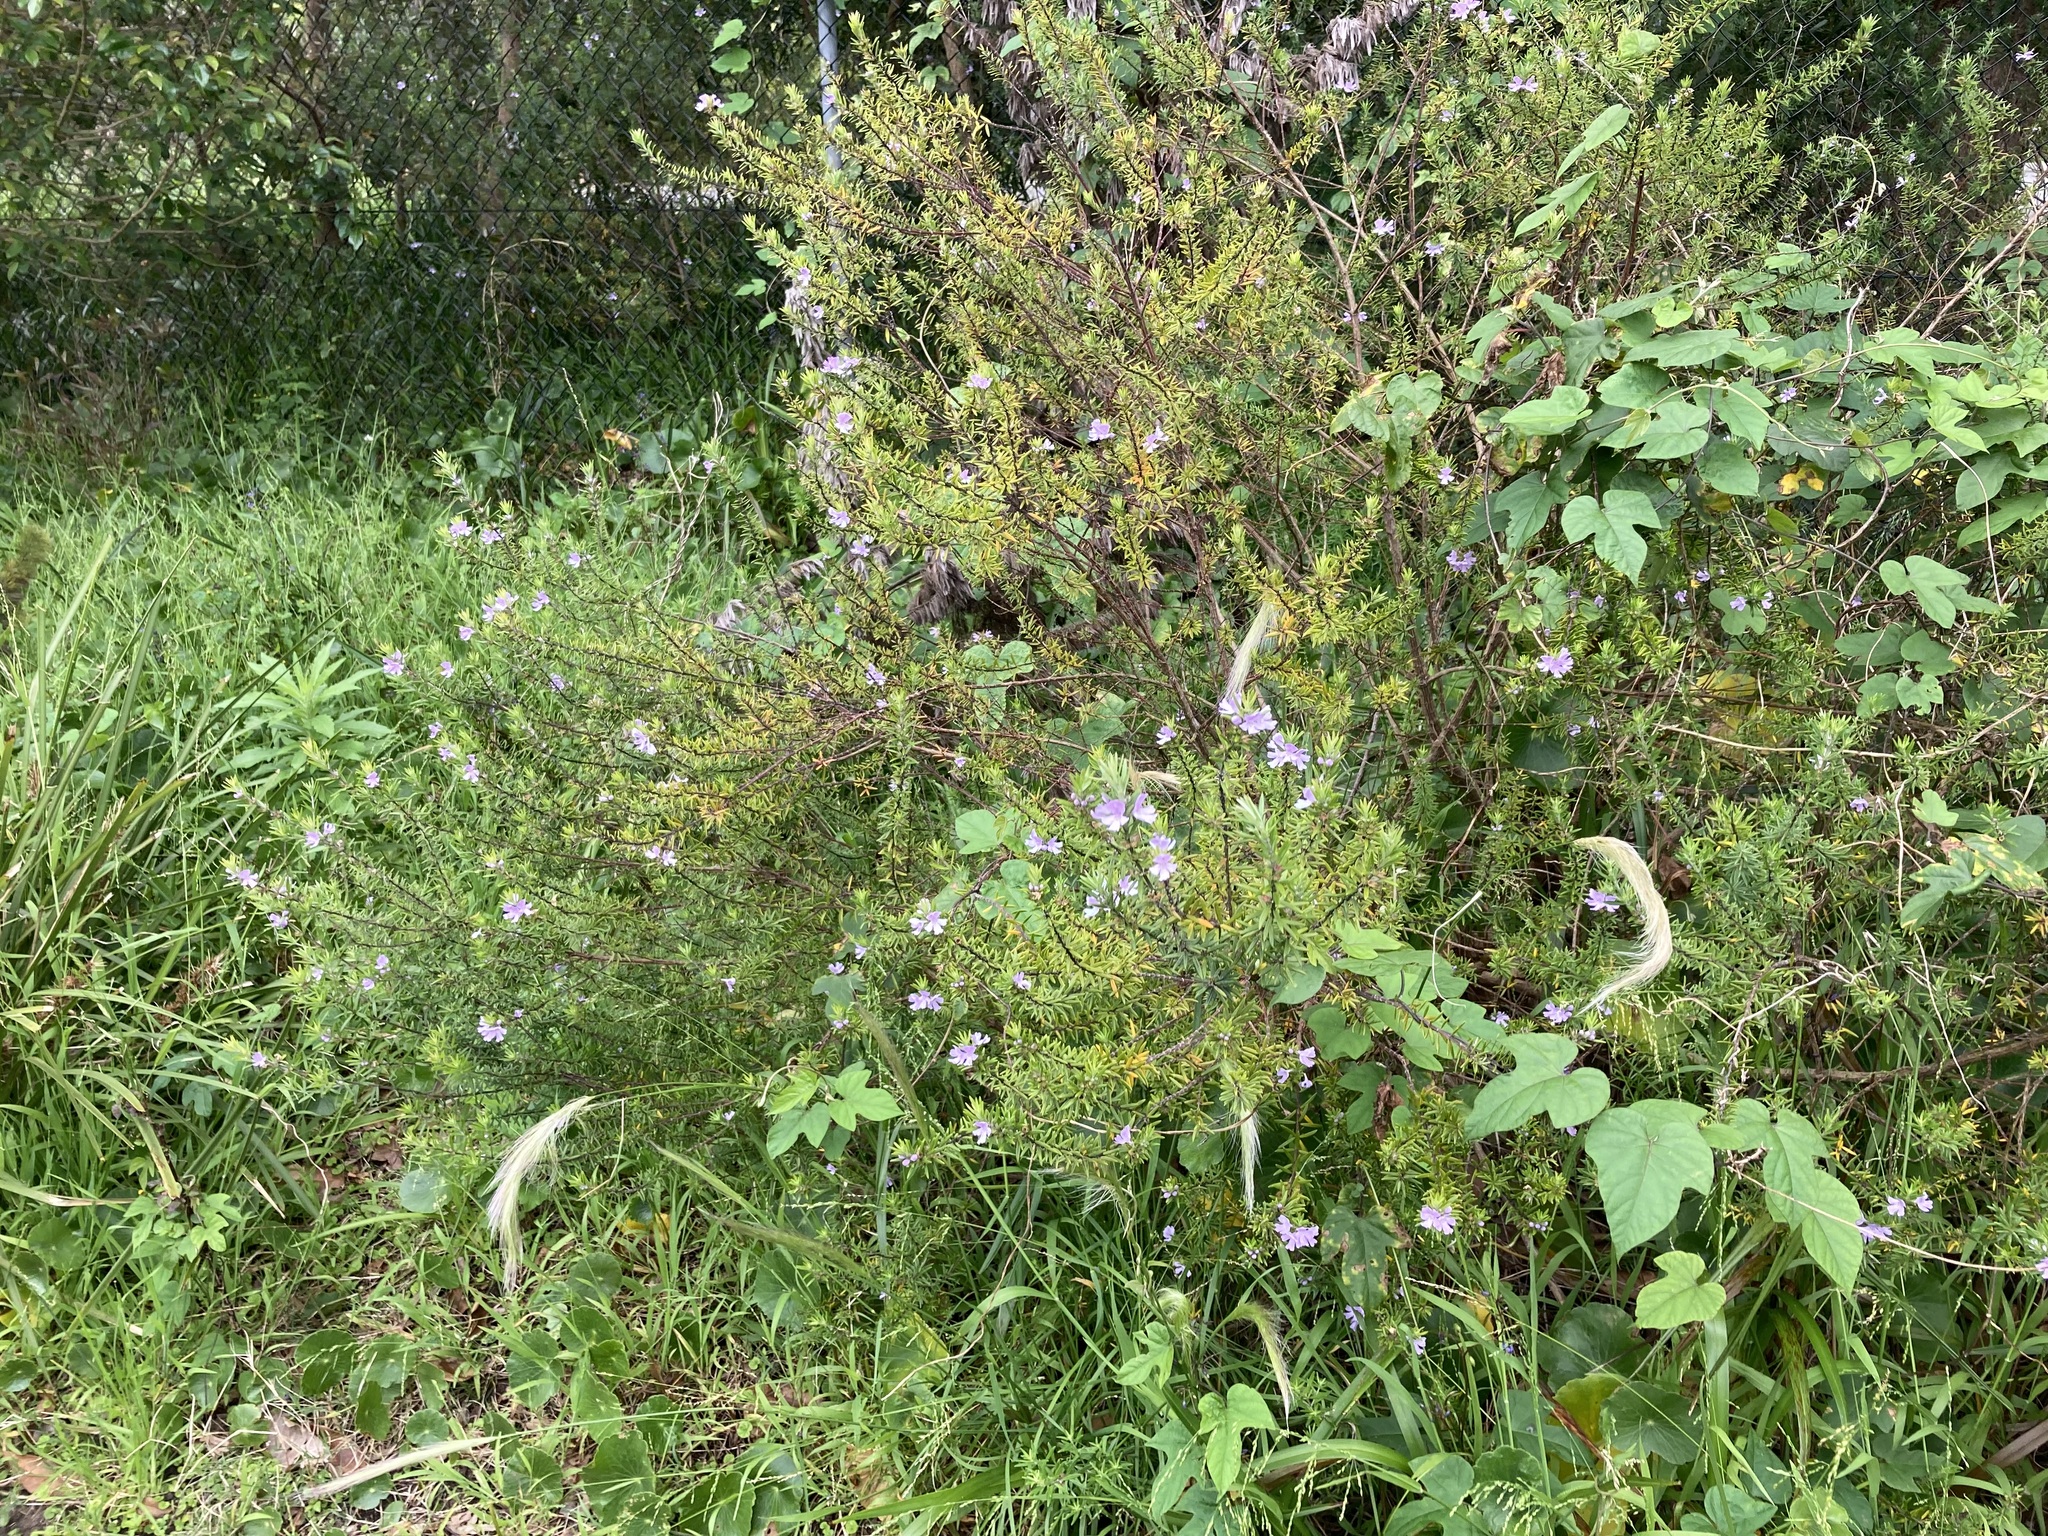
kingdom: Plantae
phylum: Tracheophyta
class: Magnoliopsida
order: Lamiales
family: Lamiaceae
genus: Westringia
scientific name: Westringia fruticosa
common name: Coastal-rosemary
